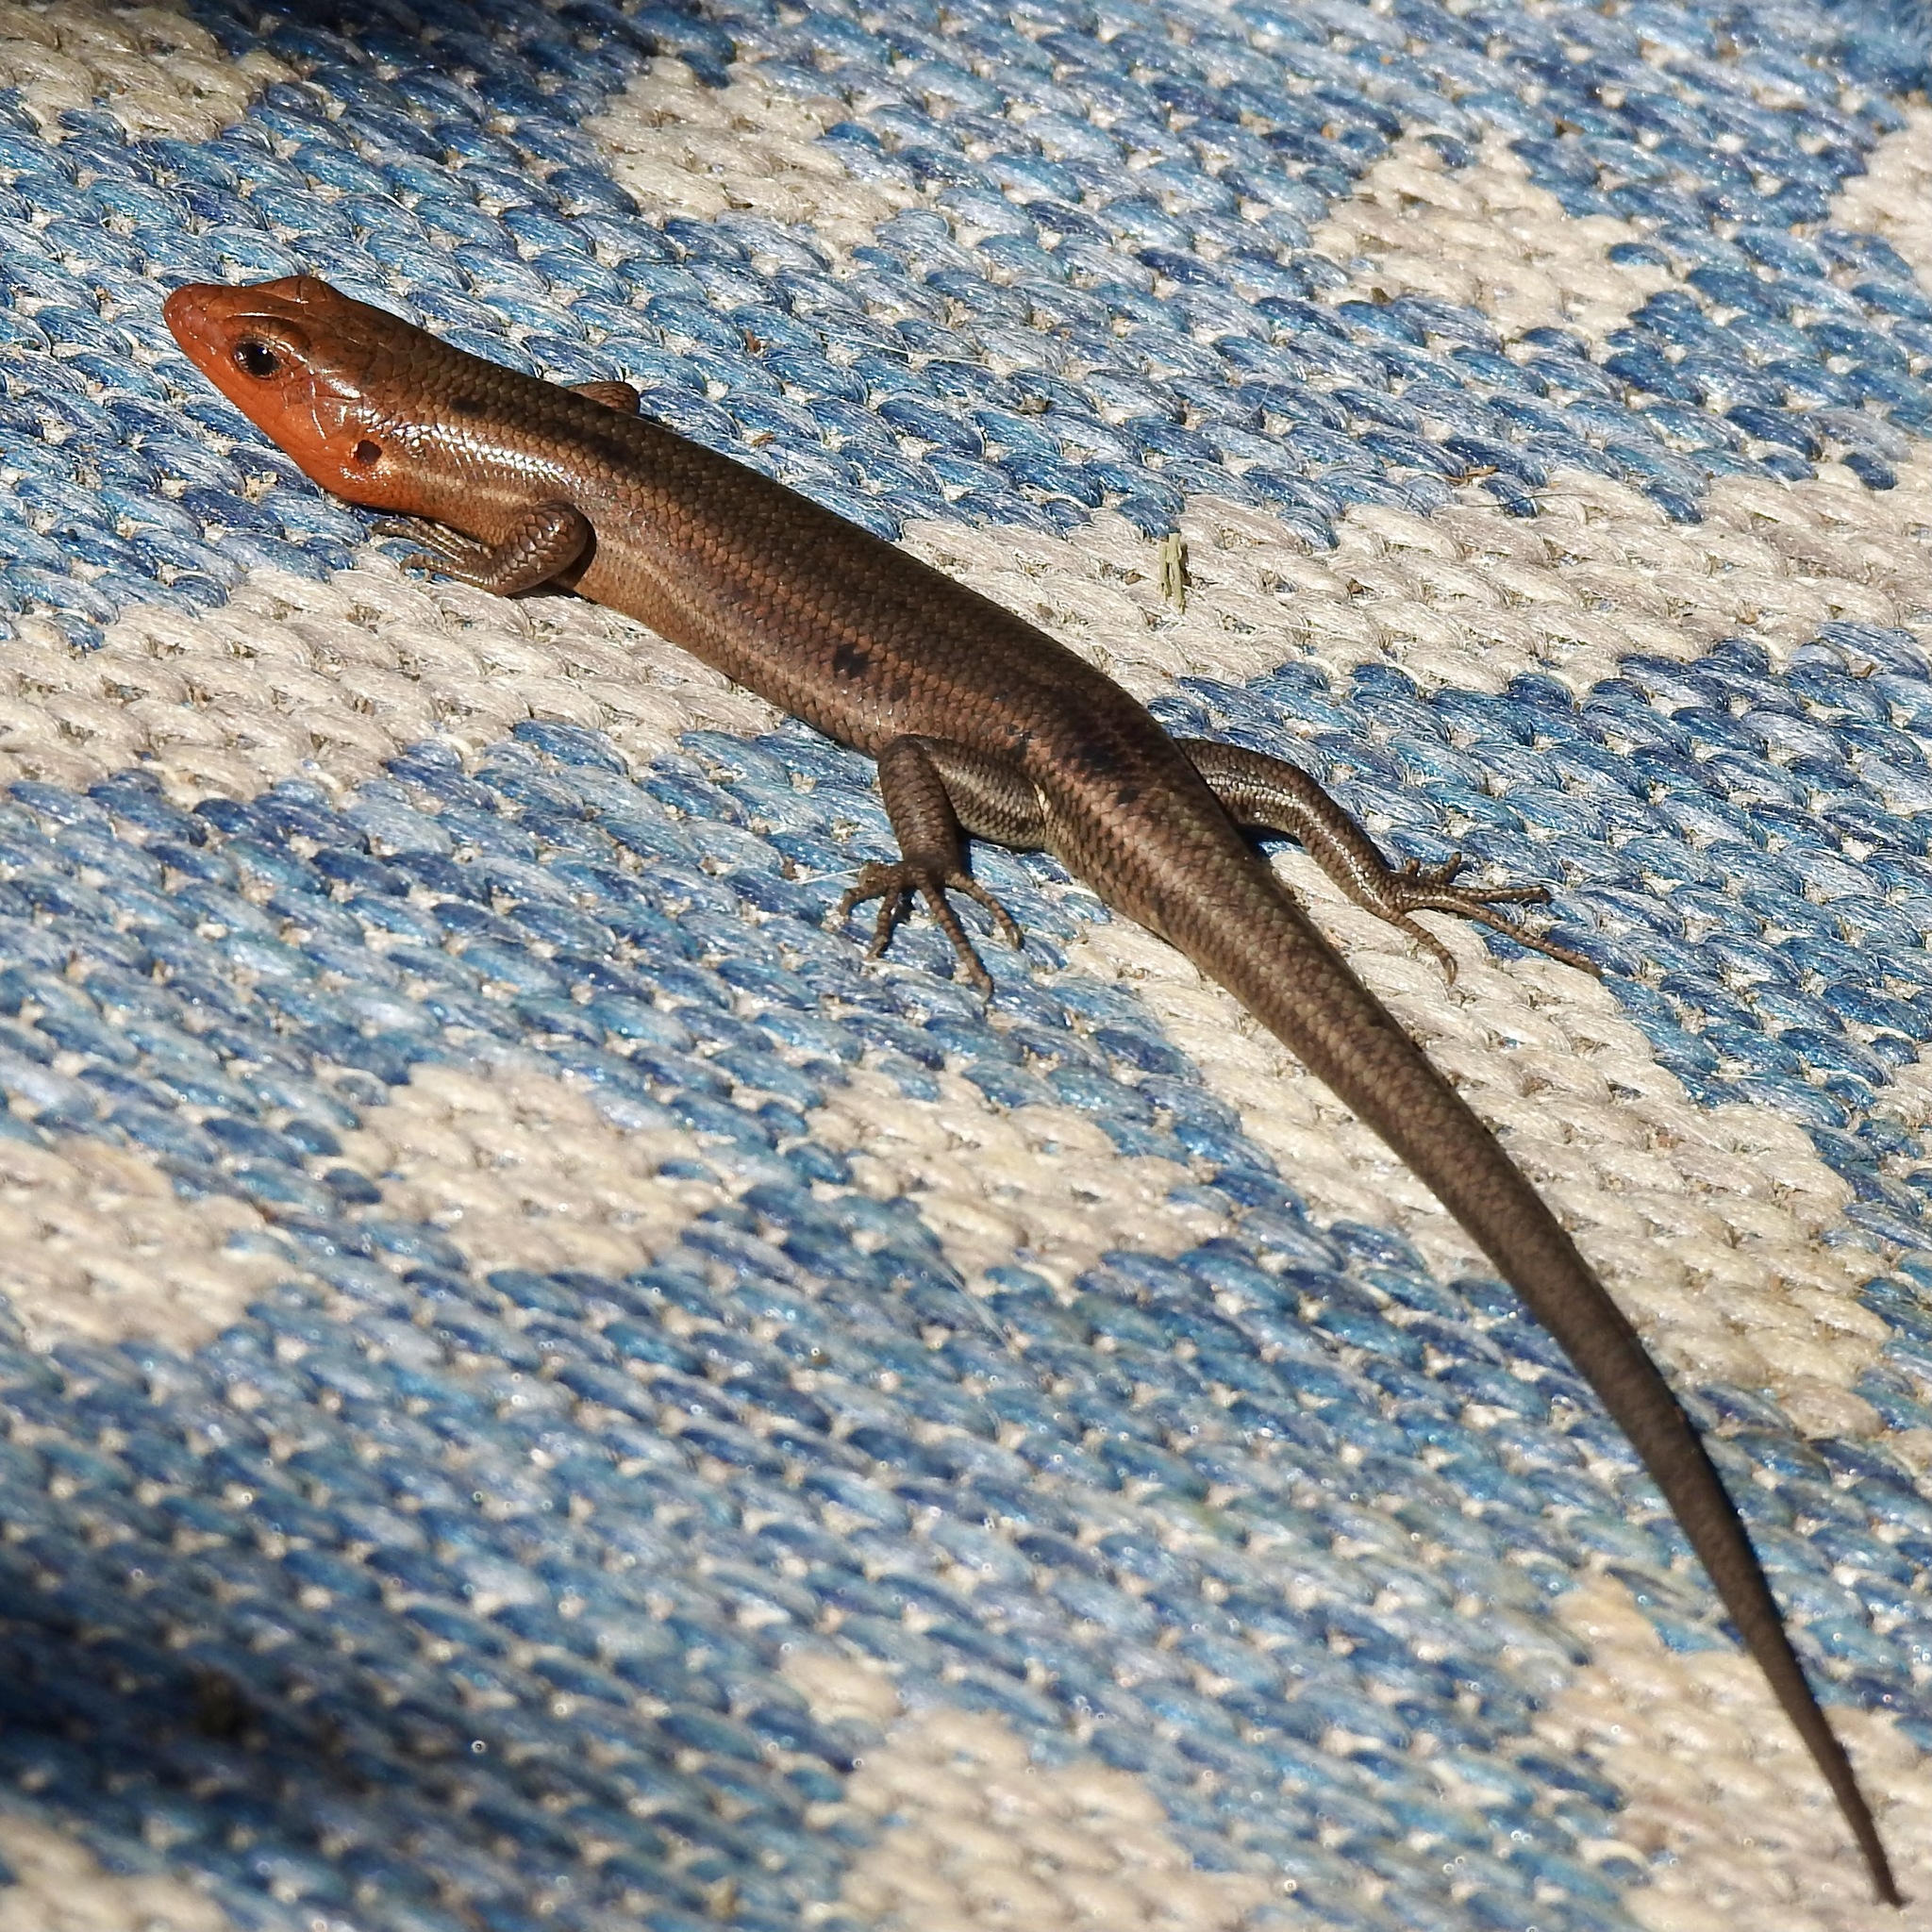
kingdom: Animalia
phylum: Chordata
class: Squamata
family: Scincidae
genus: Plestiodon
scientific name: Plestiodon fasciatus
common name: Five-lined skink
